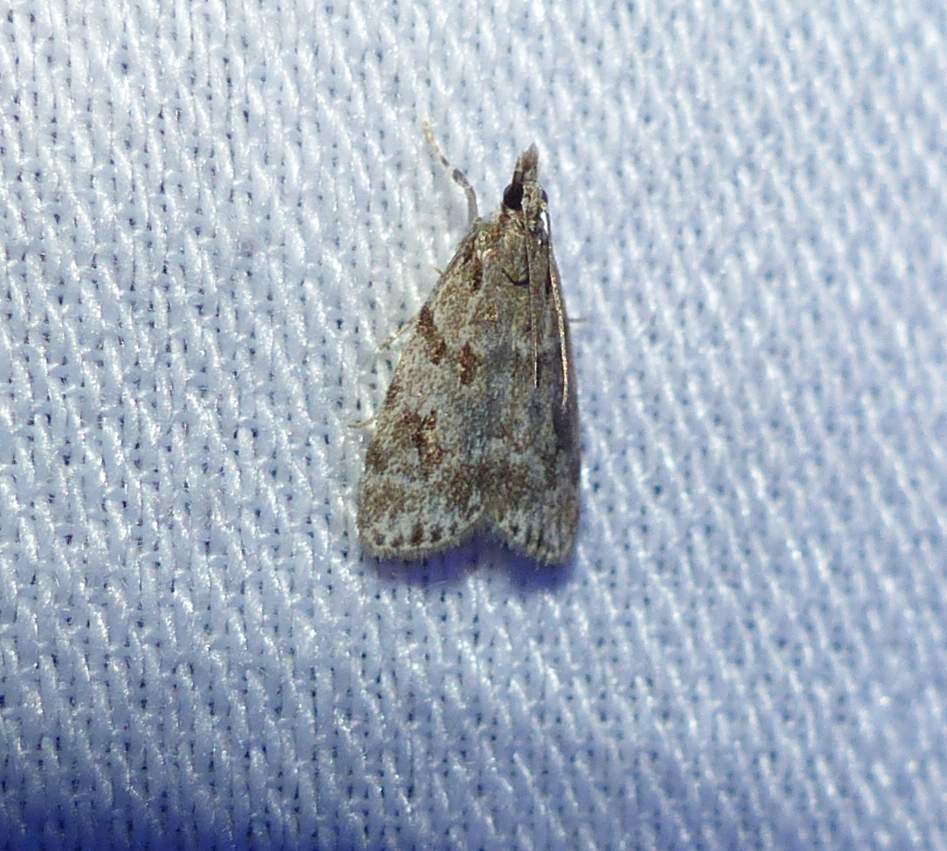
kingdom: Animalia
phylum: Arthropoda
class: Insecta
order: Lepidoptera
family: Crambidae
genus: Scoparia
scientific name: Scoparia biplagialis
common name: Double-striped scoparia moth
